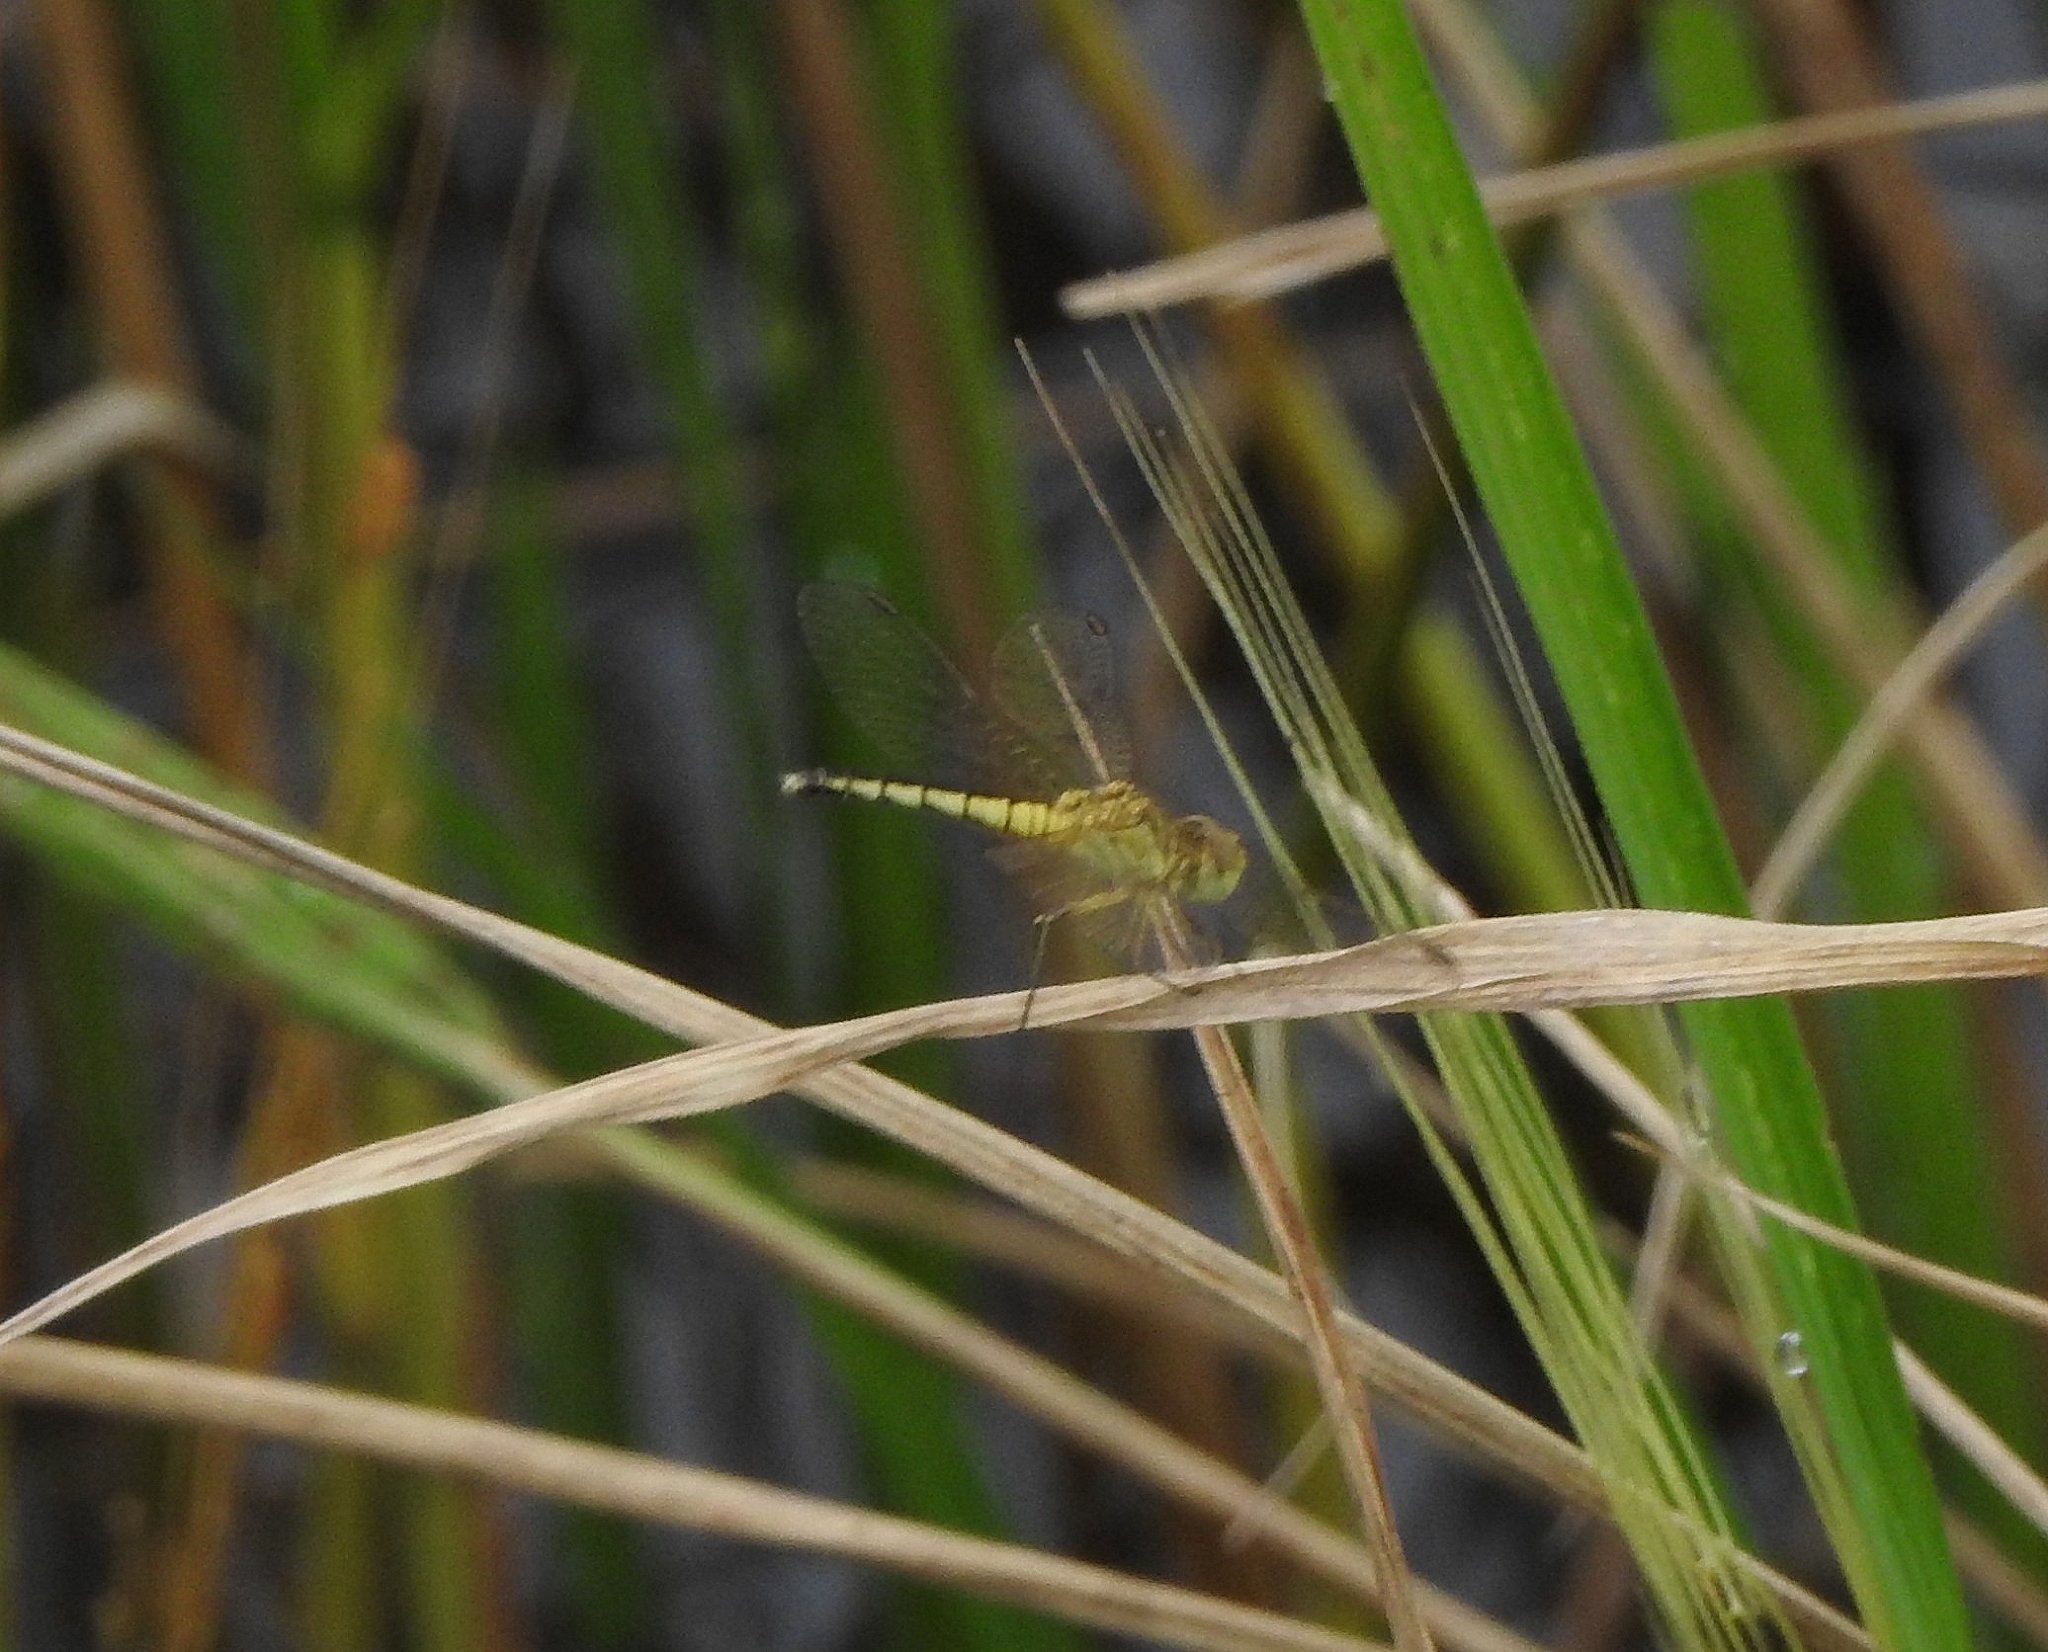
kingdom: Animalia
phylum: Arthropoda
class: Insecta
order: Odonata
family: Libellulidae
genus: Diplacodes
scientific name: Diplacodes nebulosa
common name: Black-tipped percher
